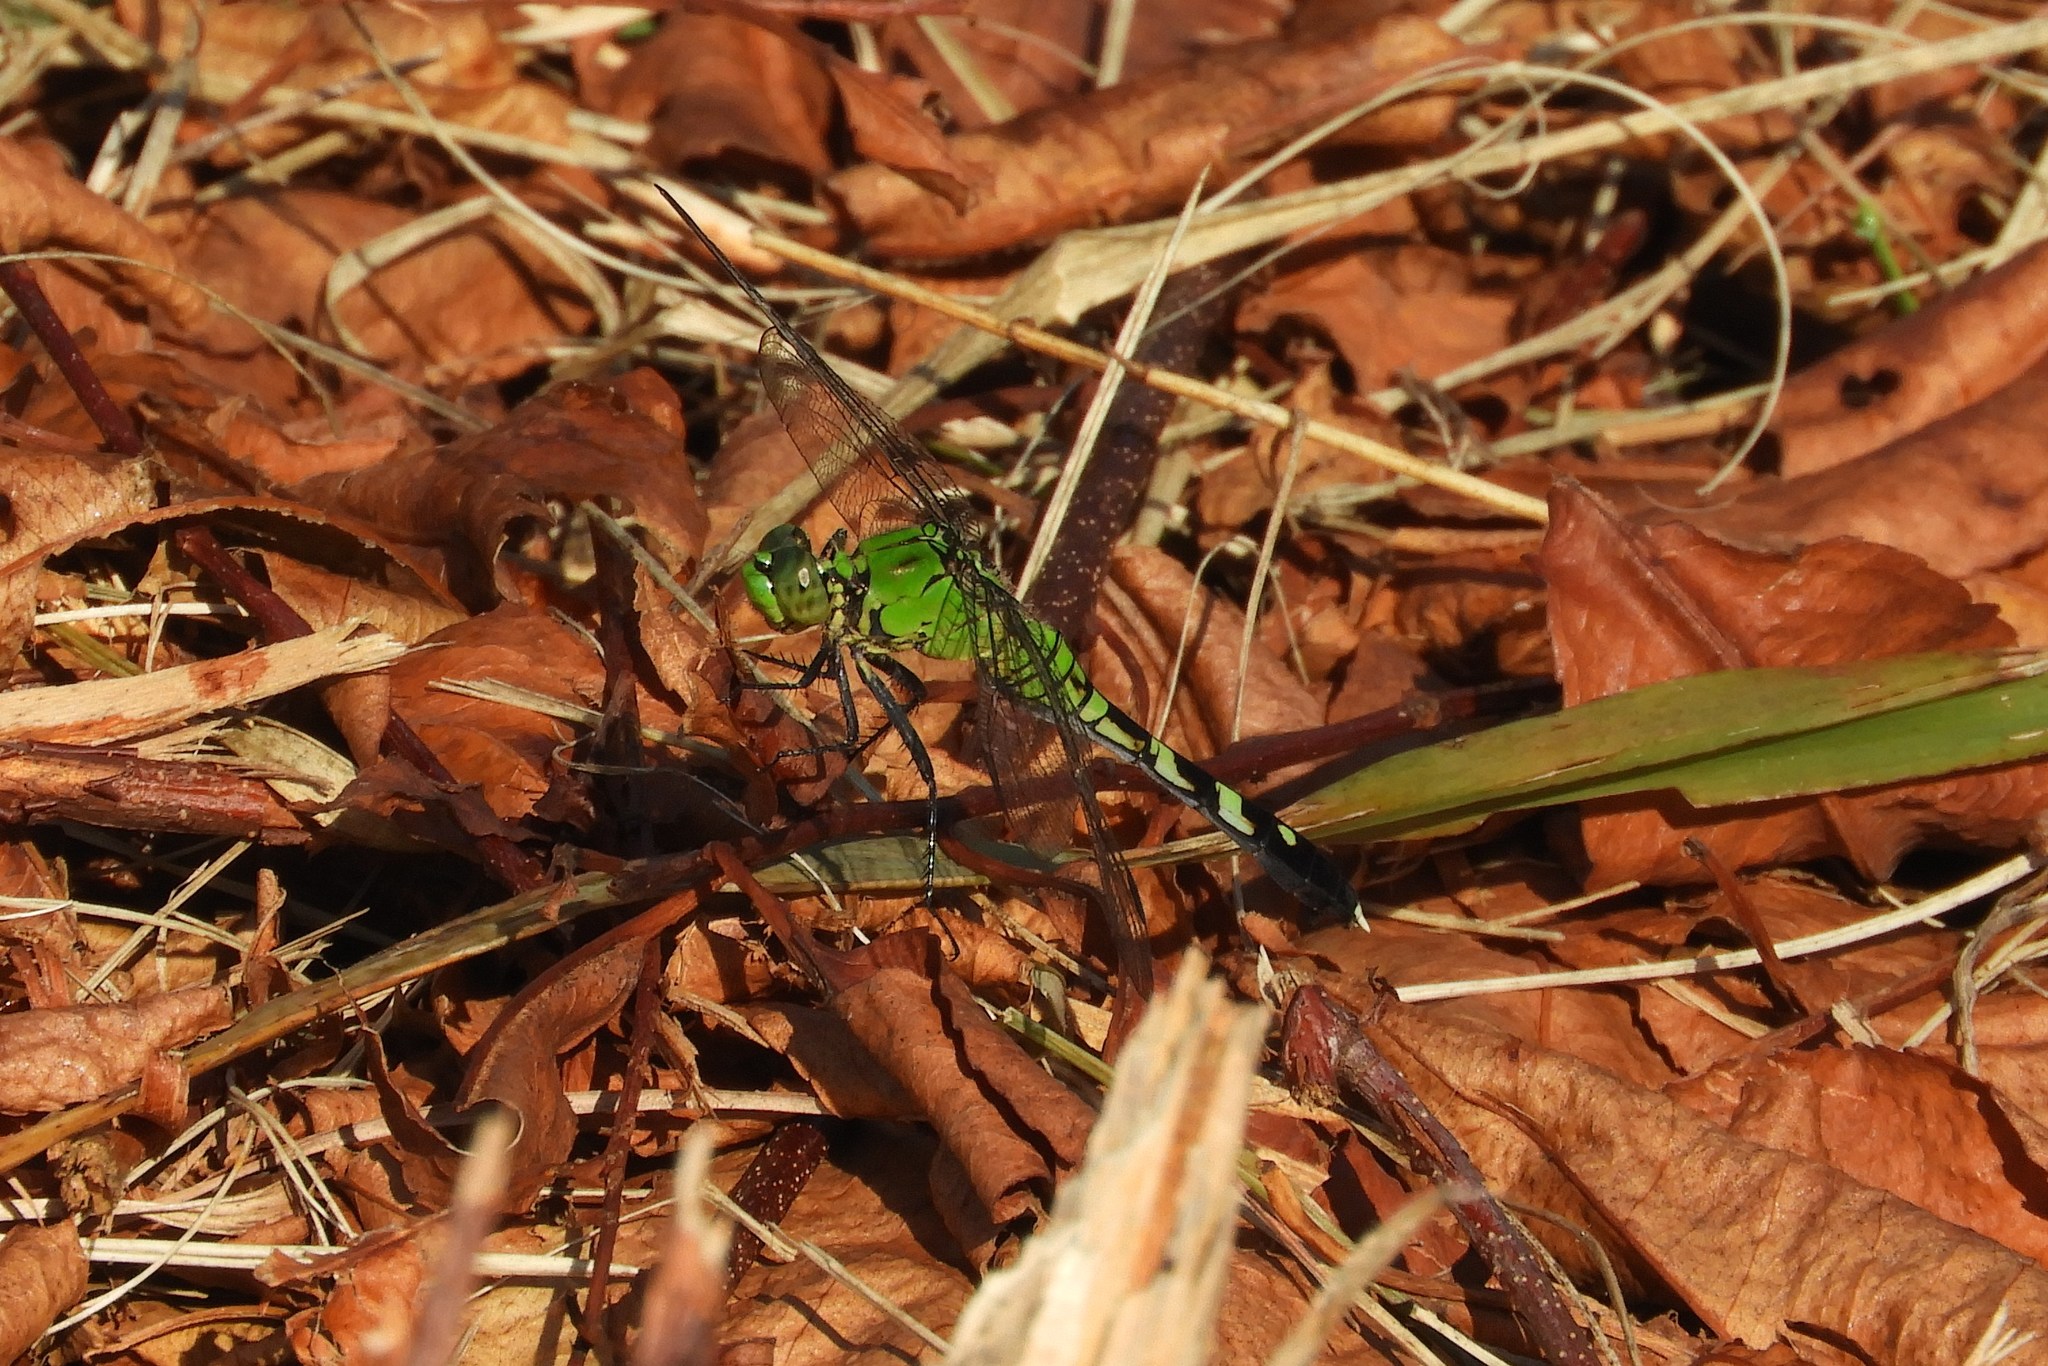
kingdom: Animalia
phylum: Arthropoda
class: Insecta
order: Odonata
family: Libellulidae
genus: Erythemis
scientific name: Erythemis simplicicollis
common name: Eastern pondhawk
